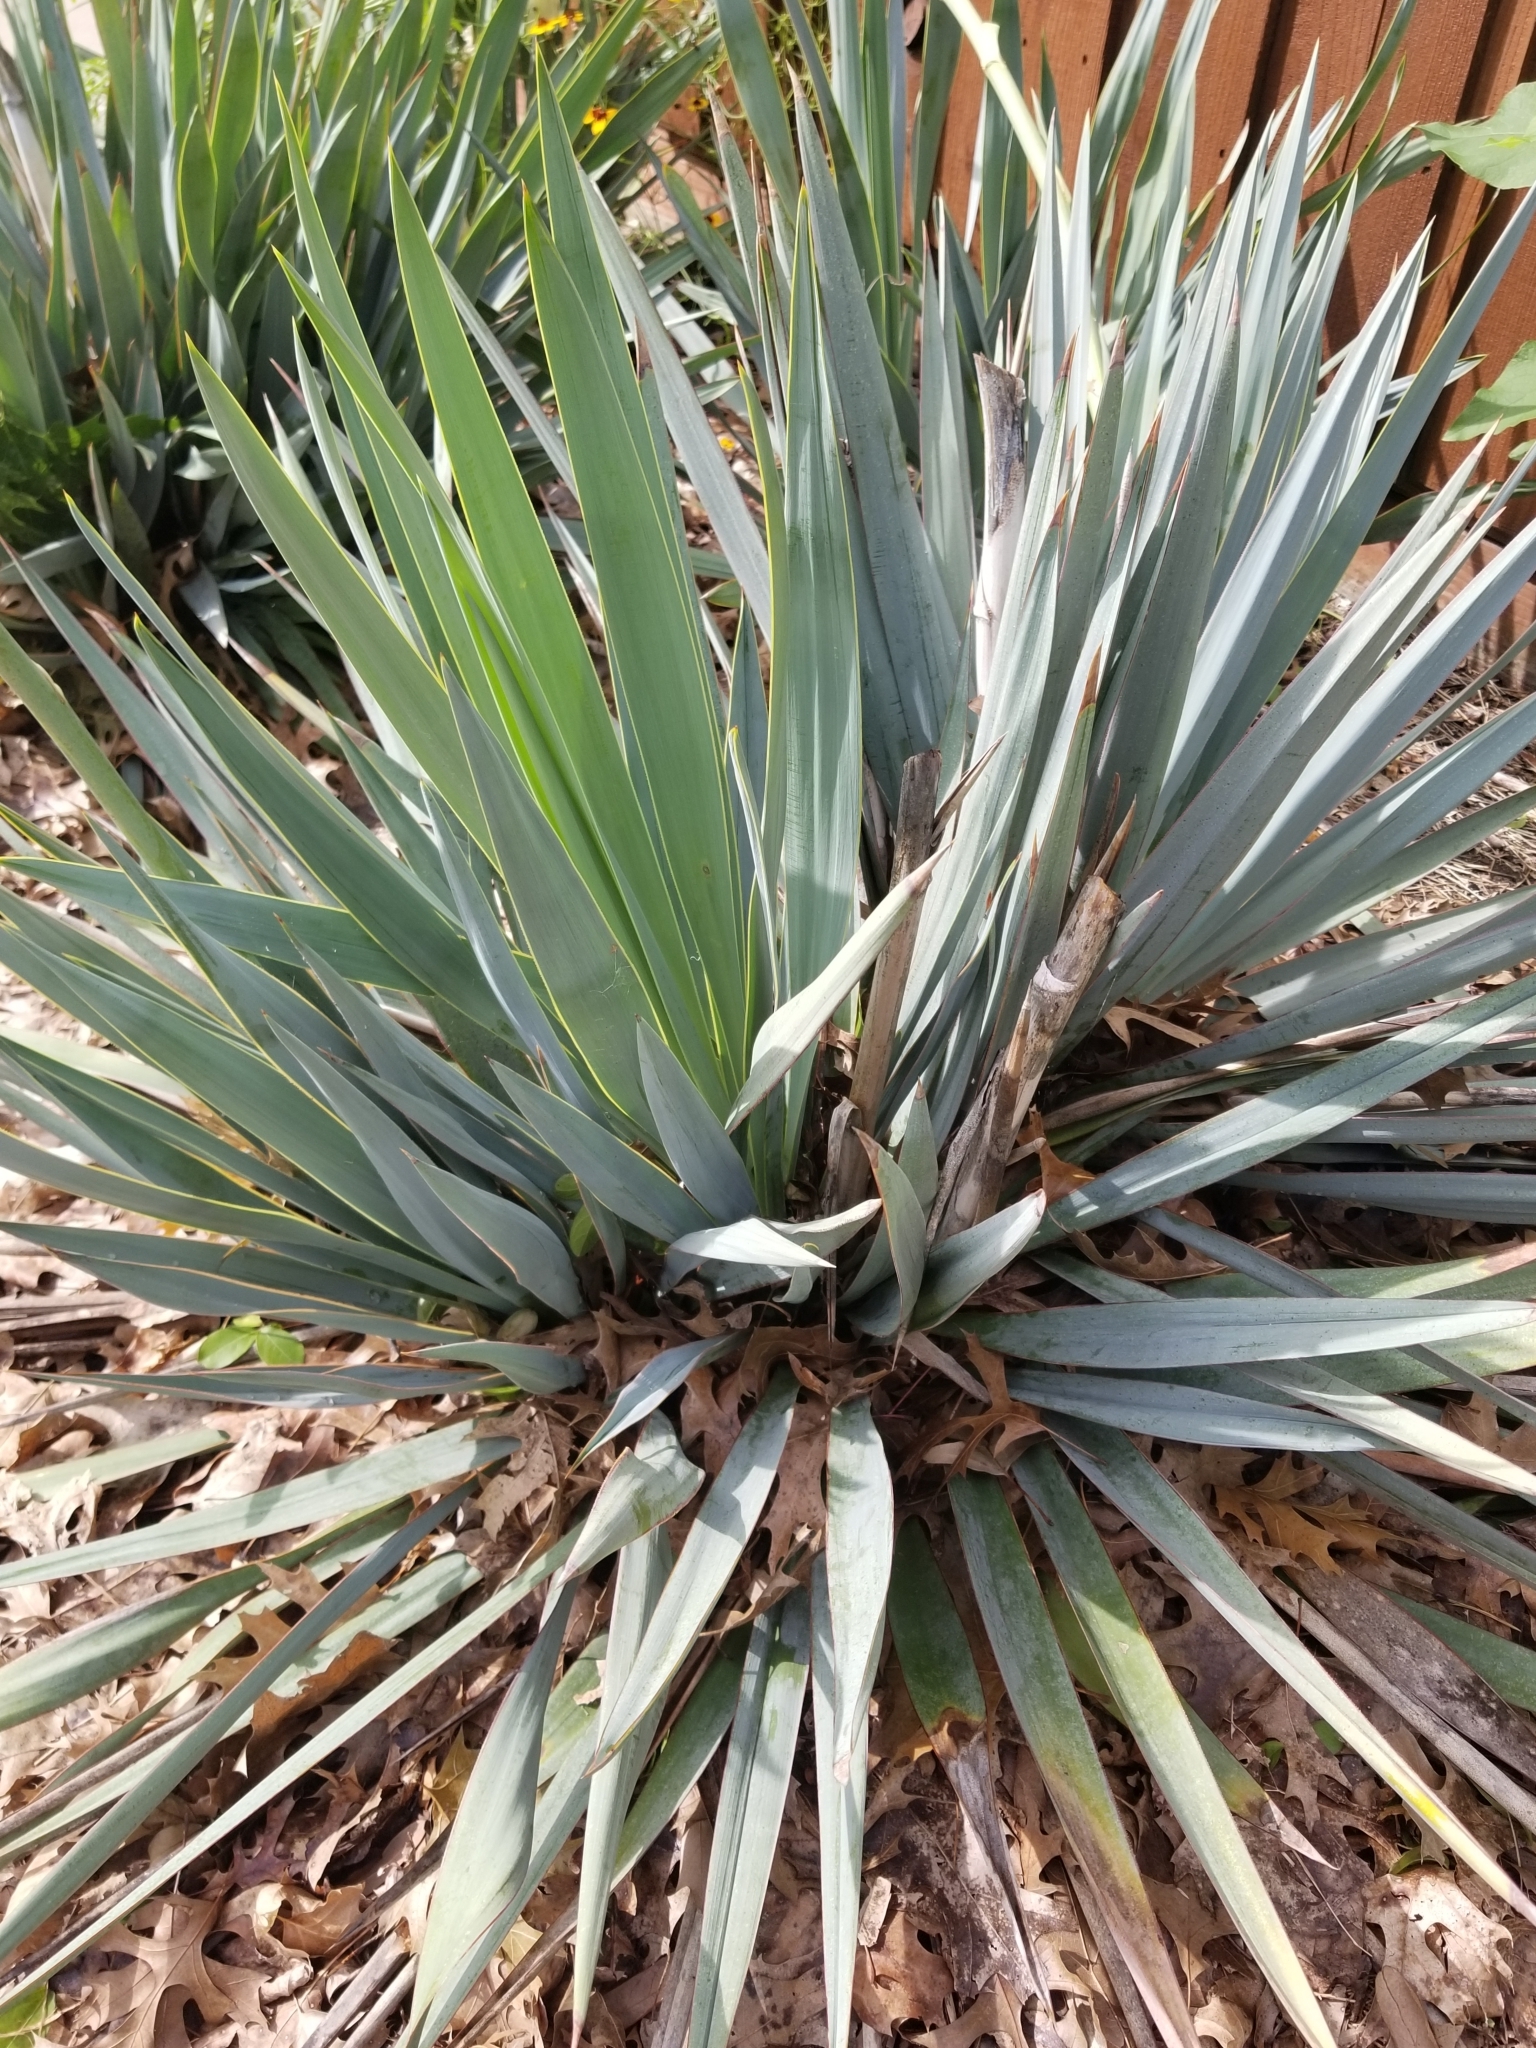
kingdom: Plantae
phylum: Tracheophyta
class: Liliopsida
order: Asparagales
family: Asparagaceae
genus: Yucca
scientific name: Yucca pallida
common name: Pale leaf yucca
